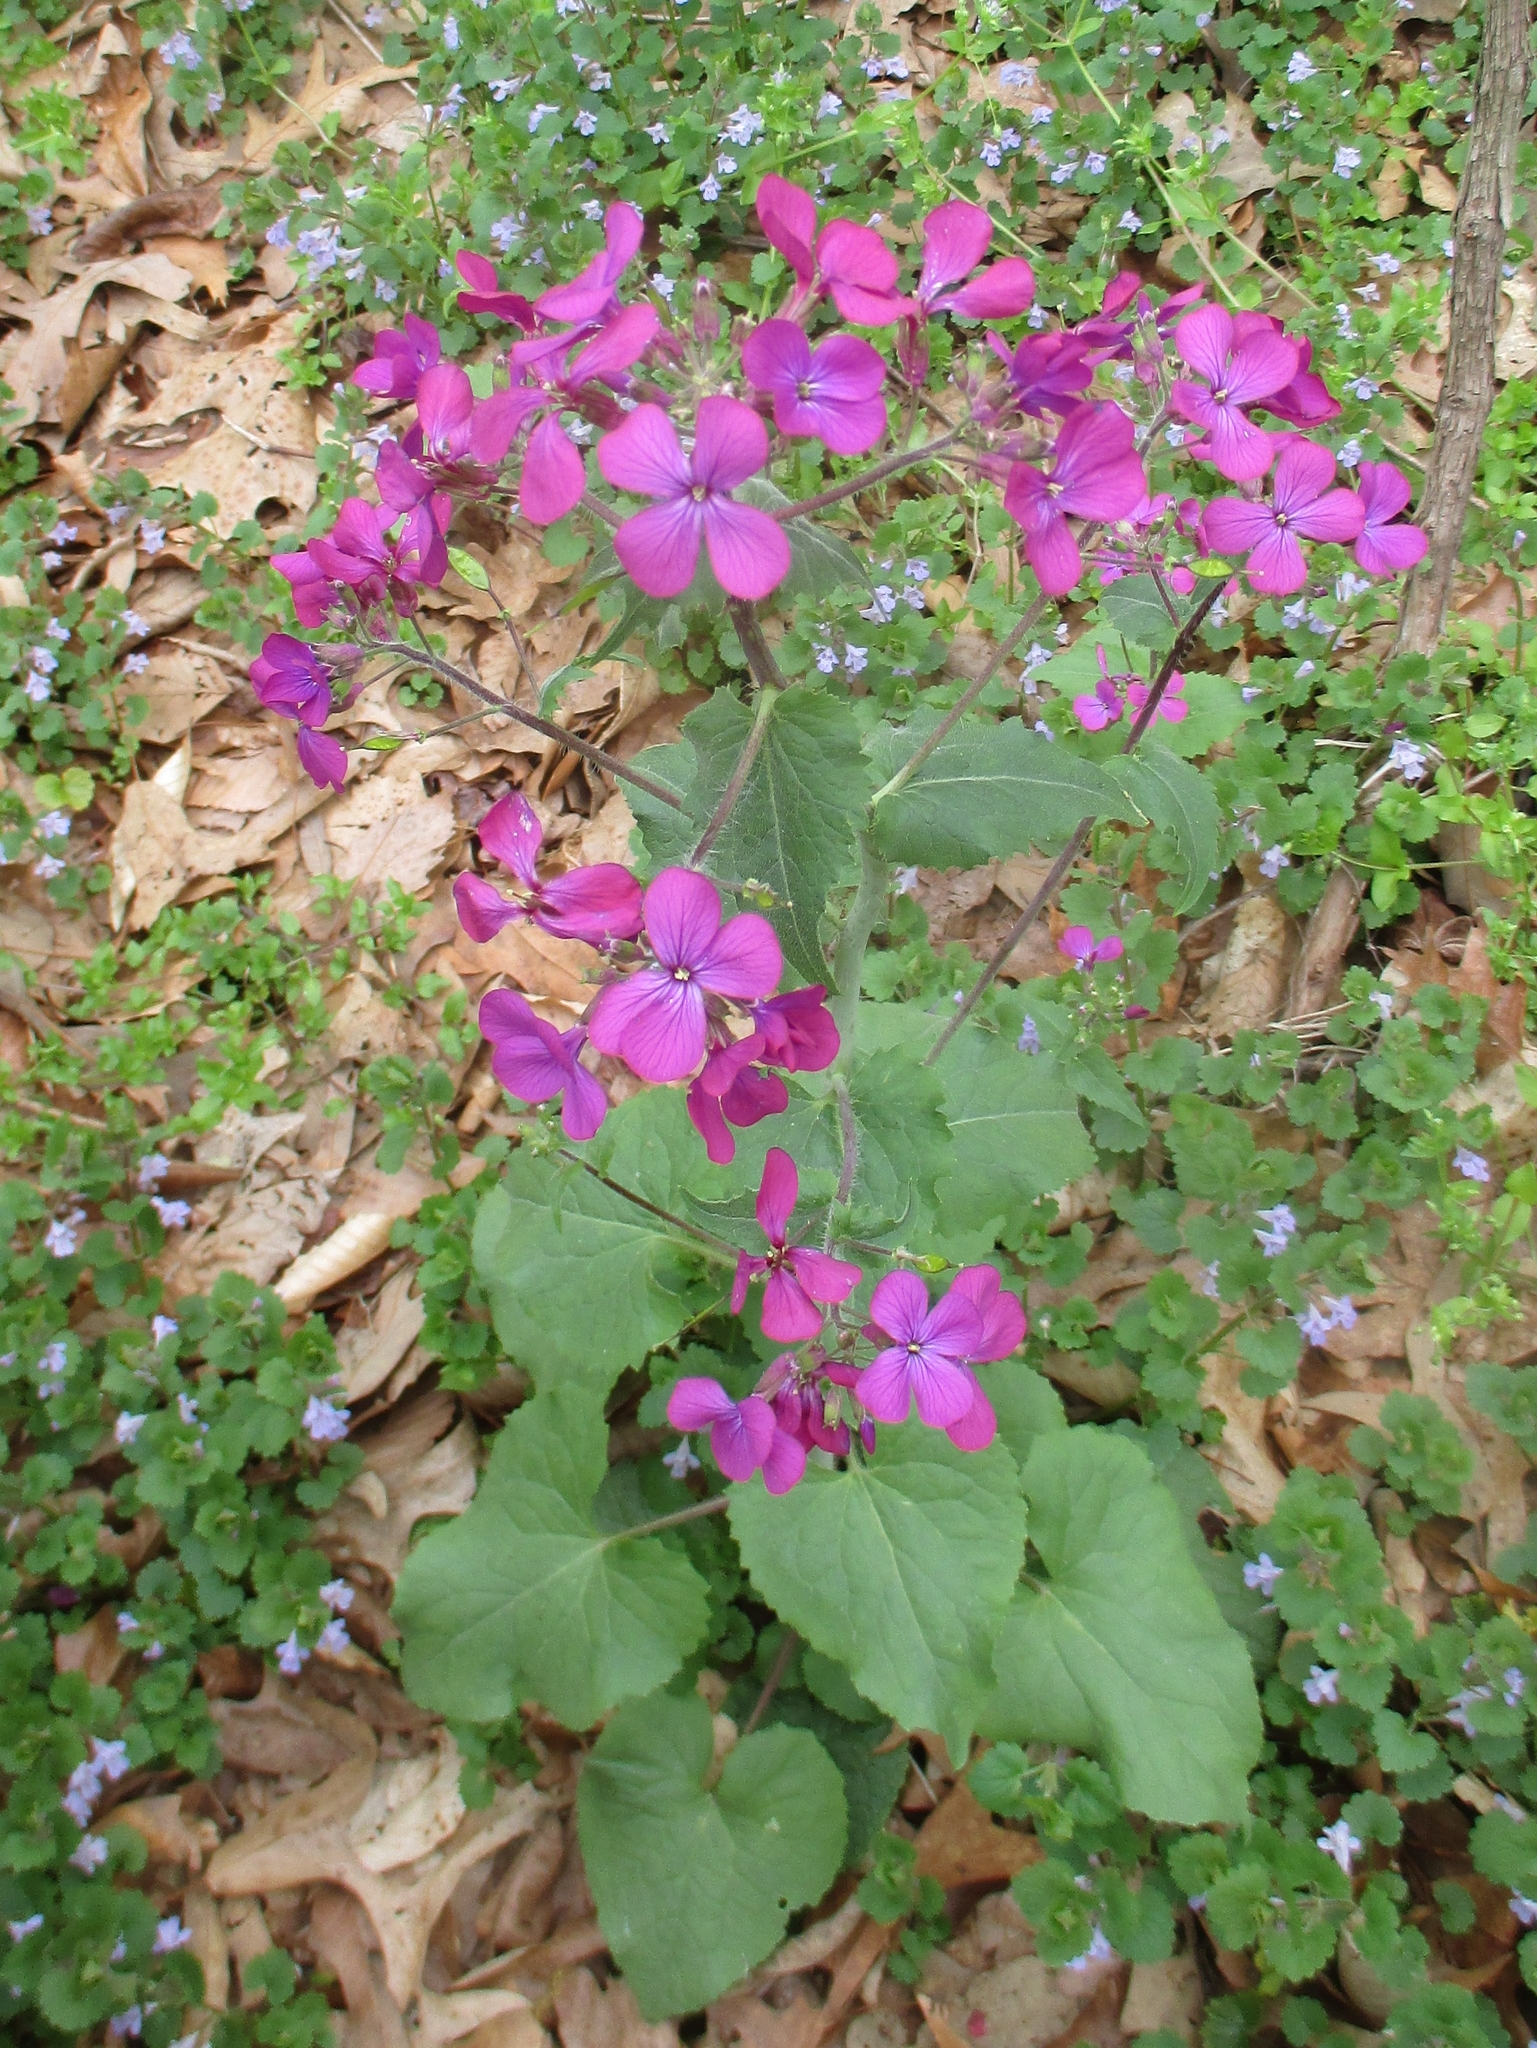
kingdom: Plantae
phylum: Tracheophyta
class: Magnoliopsida
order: Brassicales
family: Brassicaceae
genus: Lunaria
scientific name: Lunaria annua
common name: Honesty
